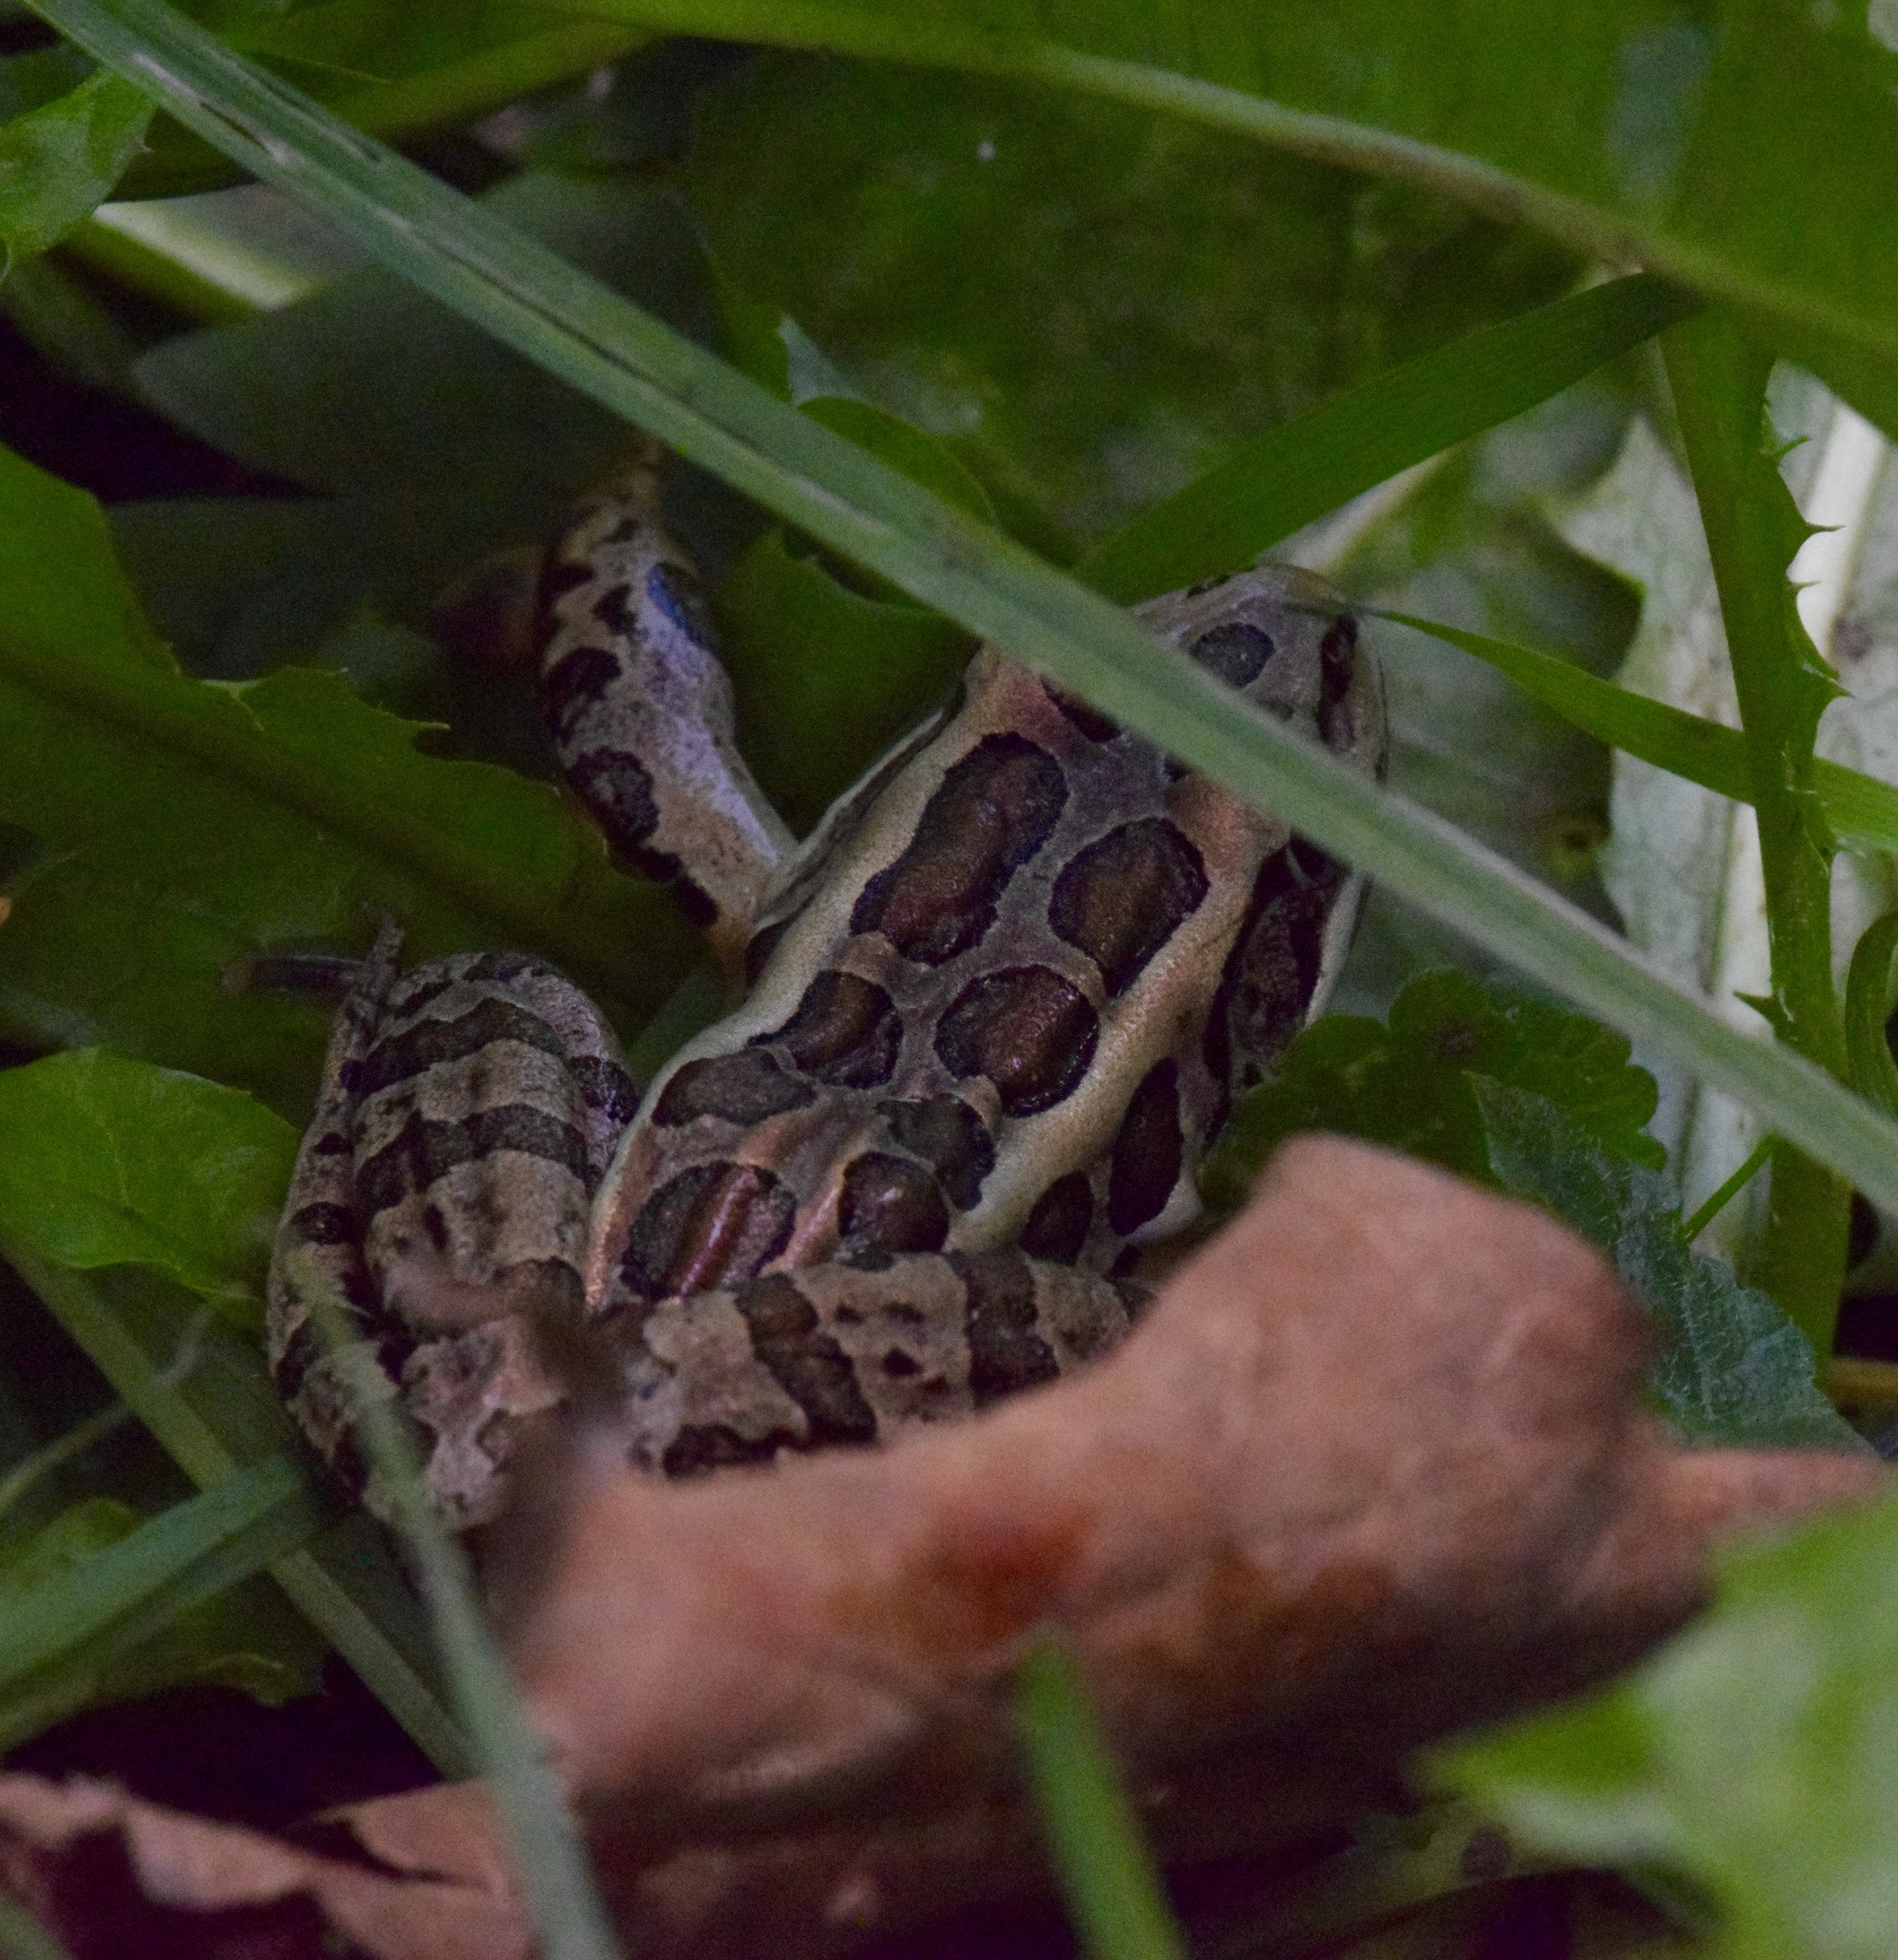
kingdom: Animalia
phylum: Chordata
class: Amphibia
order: Anura
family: Ranidae
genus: Lithobates
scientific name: Lithobates palustris
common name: Pickerel frog
